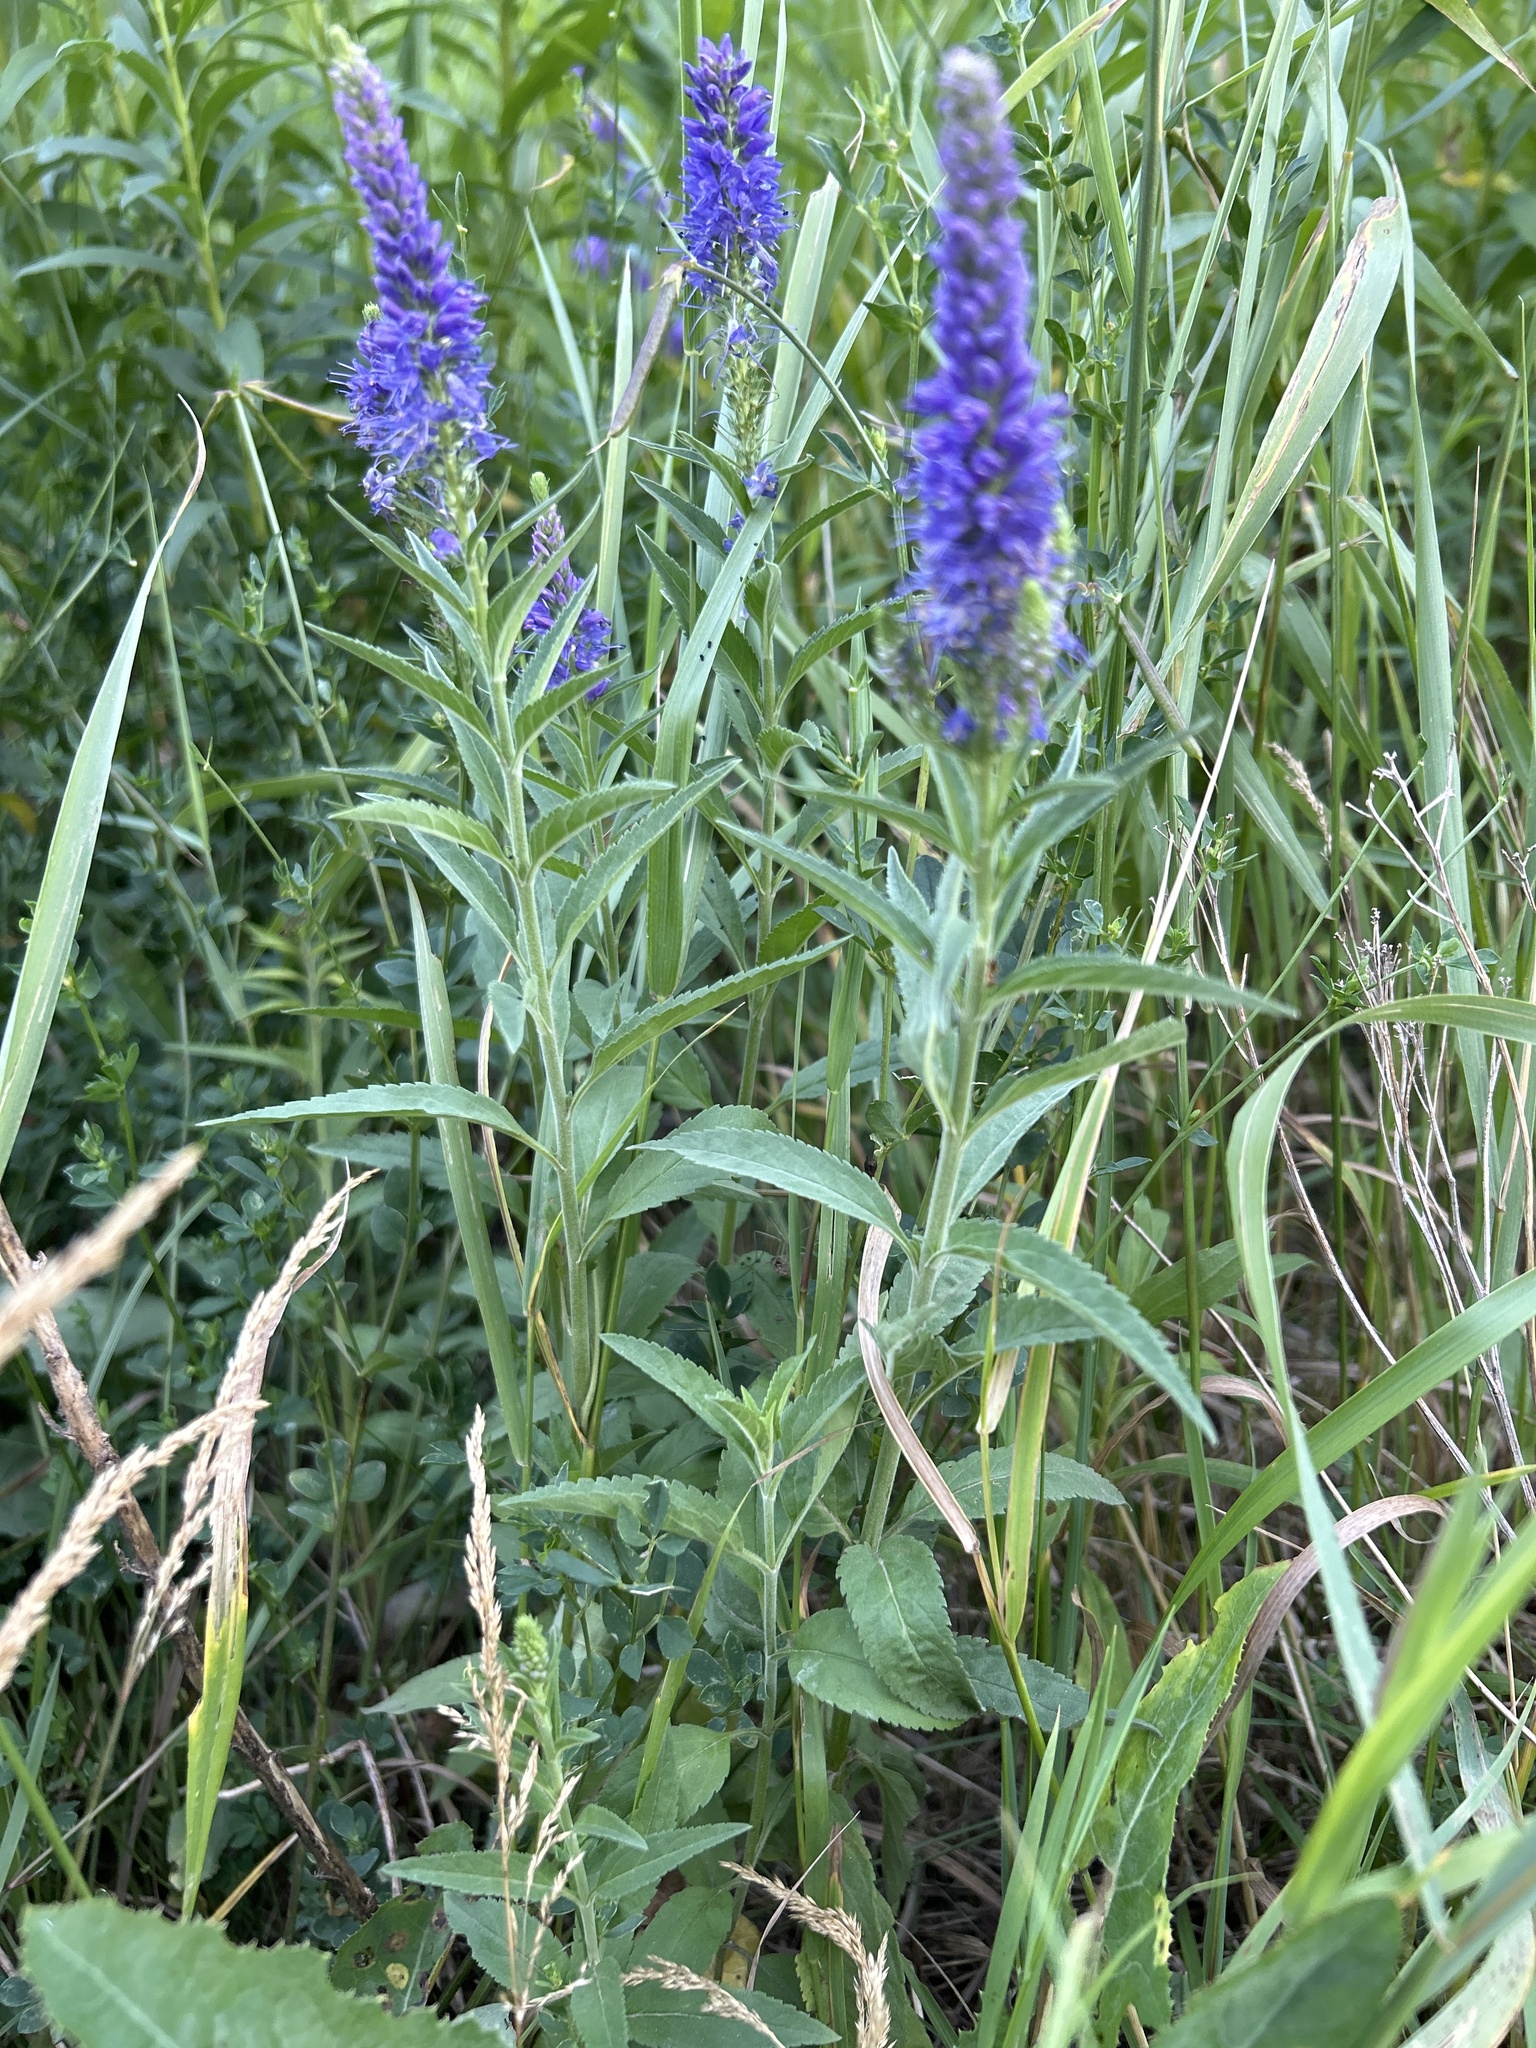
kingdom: Plantae
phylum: Tracheophyta
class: Magnoliopsida
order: Lamiales
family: Plantaginaceae
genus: Veronica
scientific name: Veronica longifolia
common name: Garden speedwell
